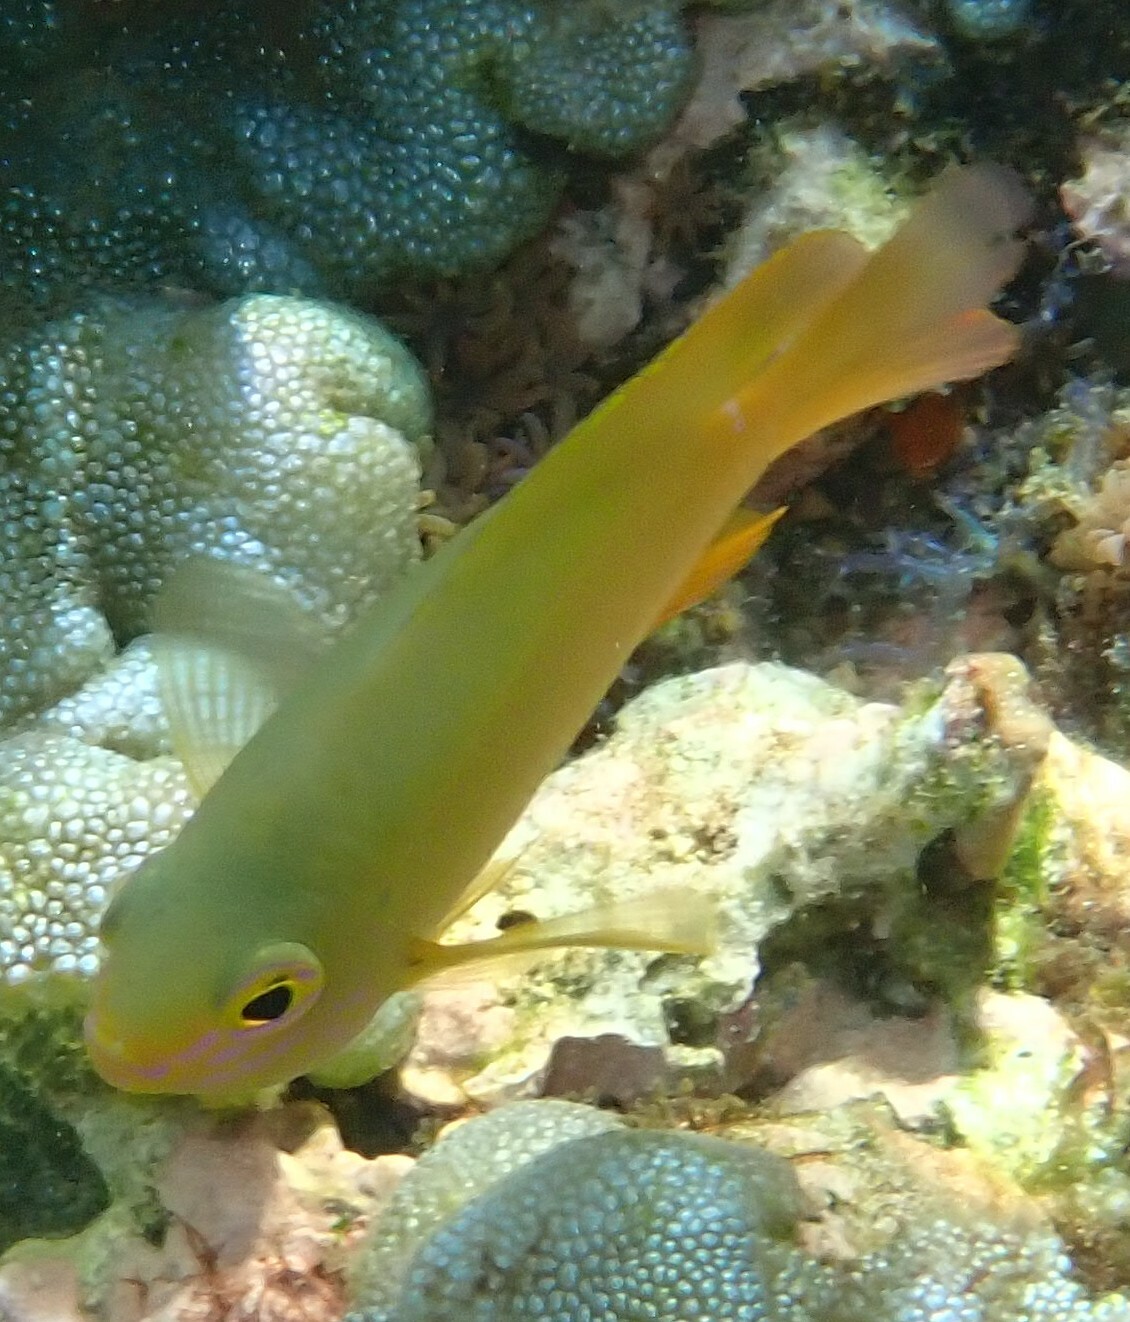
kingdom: Animalia
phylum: Chordata
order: Perciformes
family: Pomacentridae
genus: Pomacentrus
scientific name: Pomacentrus moluccensis
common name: Lemon damsel
